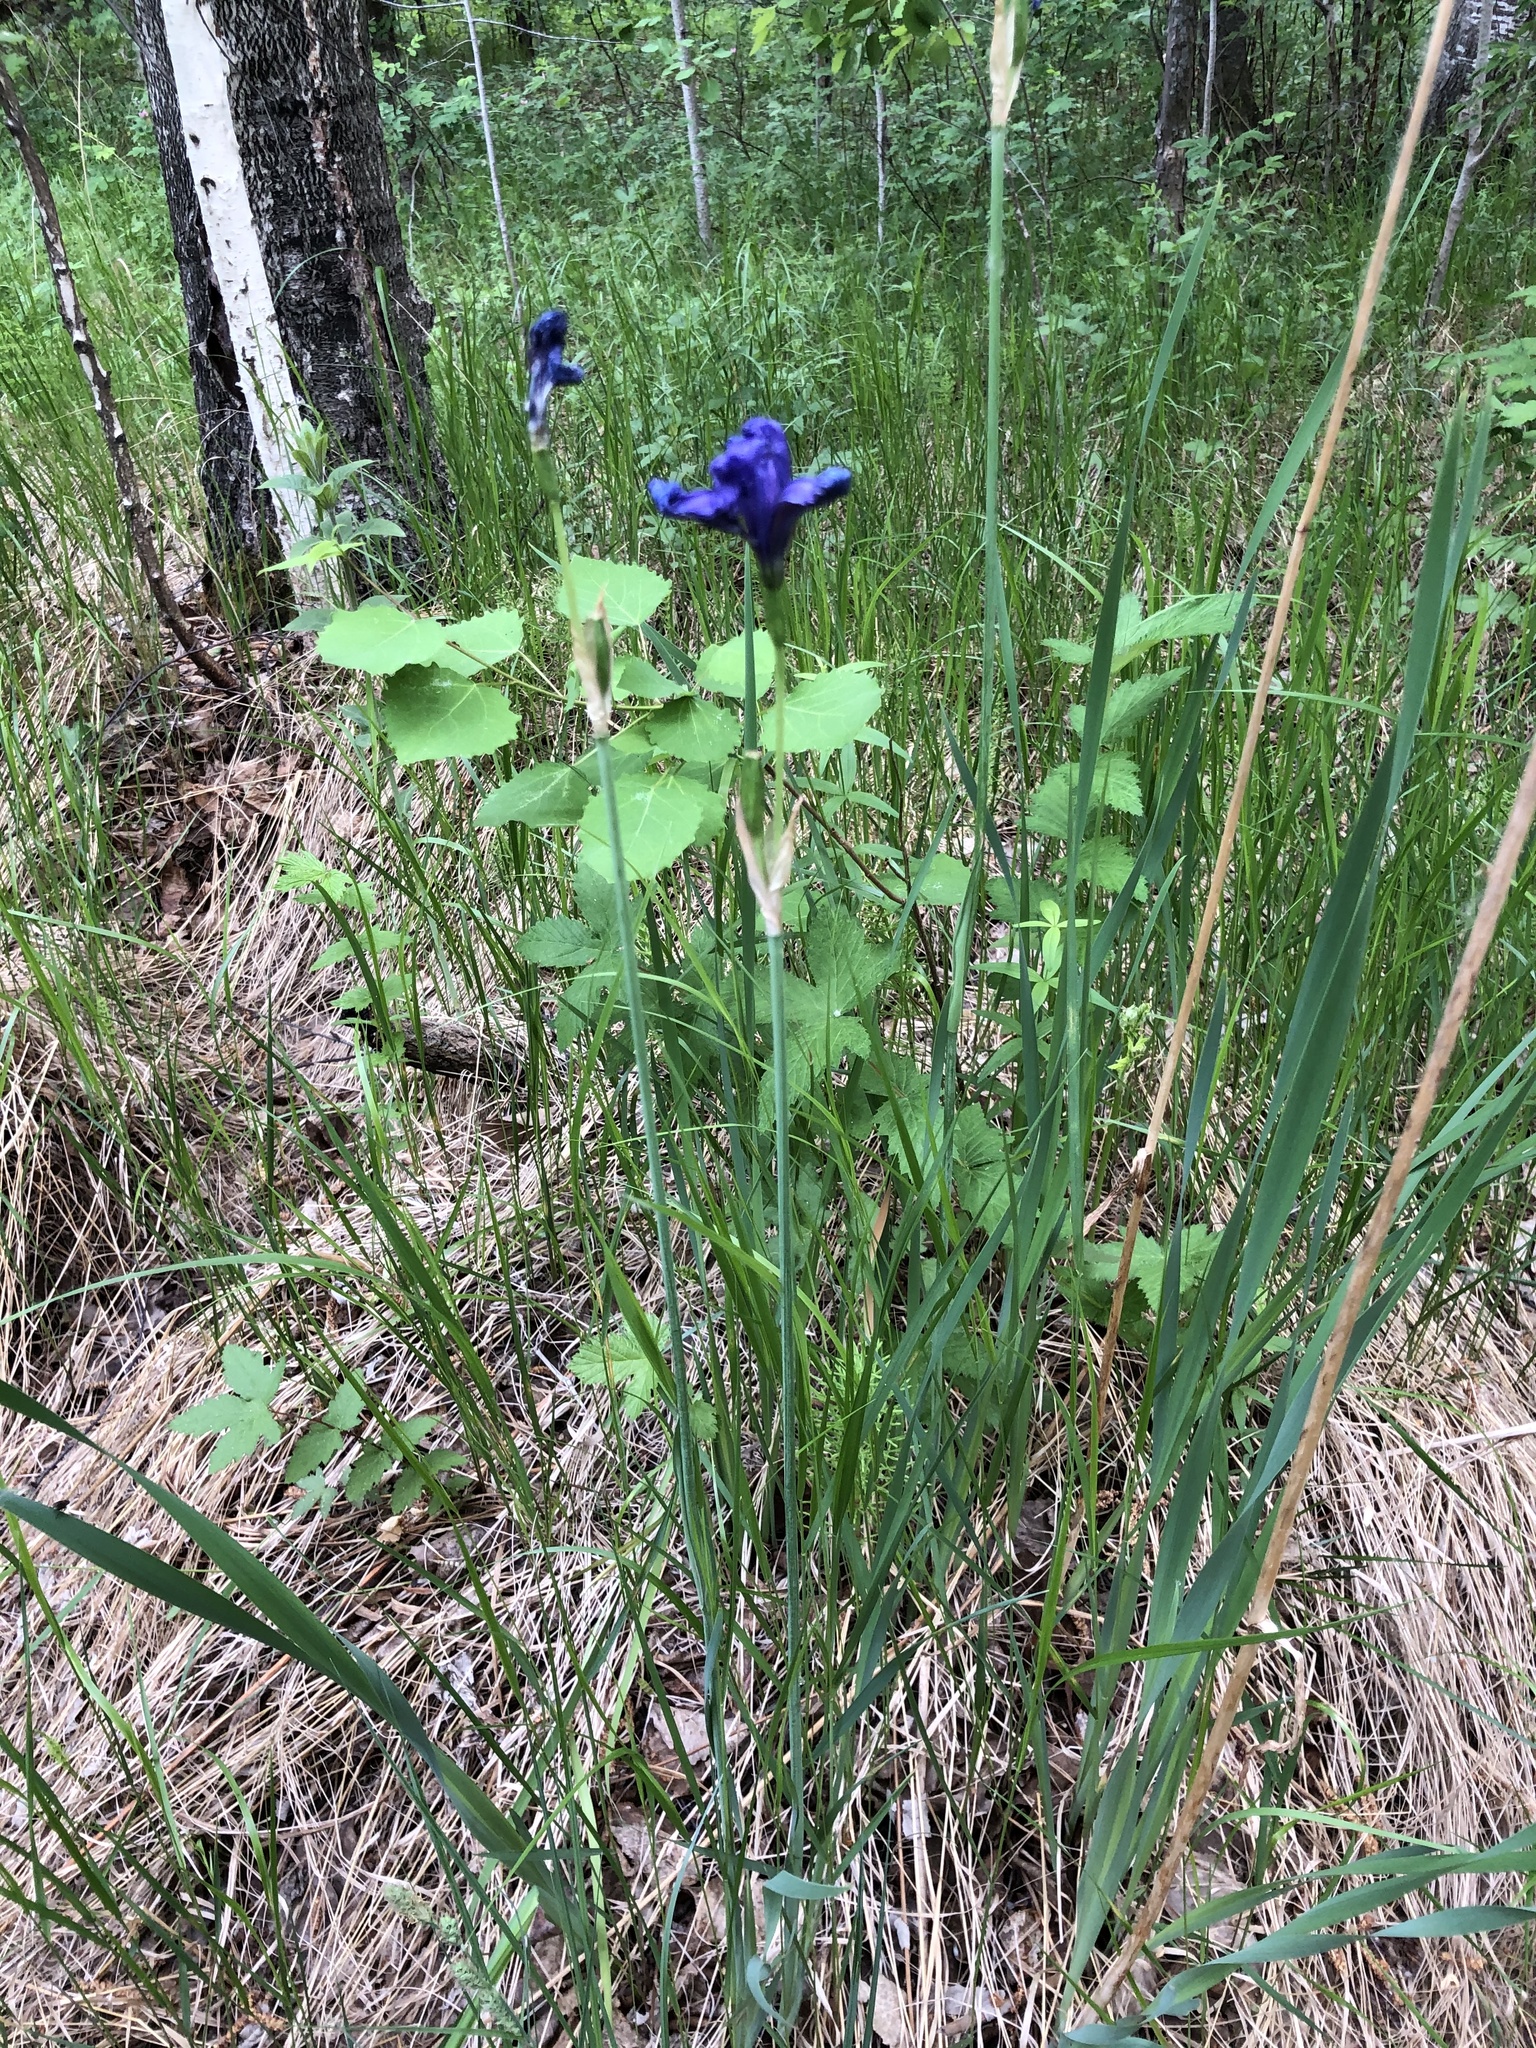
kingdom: Plantae
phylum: Tracheophyta
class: Liliopsida
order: Asparagales
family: Iridaceae
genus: Iris
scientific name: Iris sibirica
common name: Siberian iris
